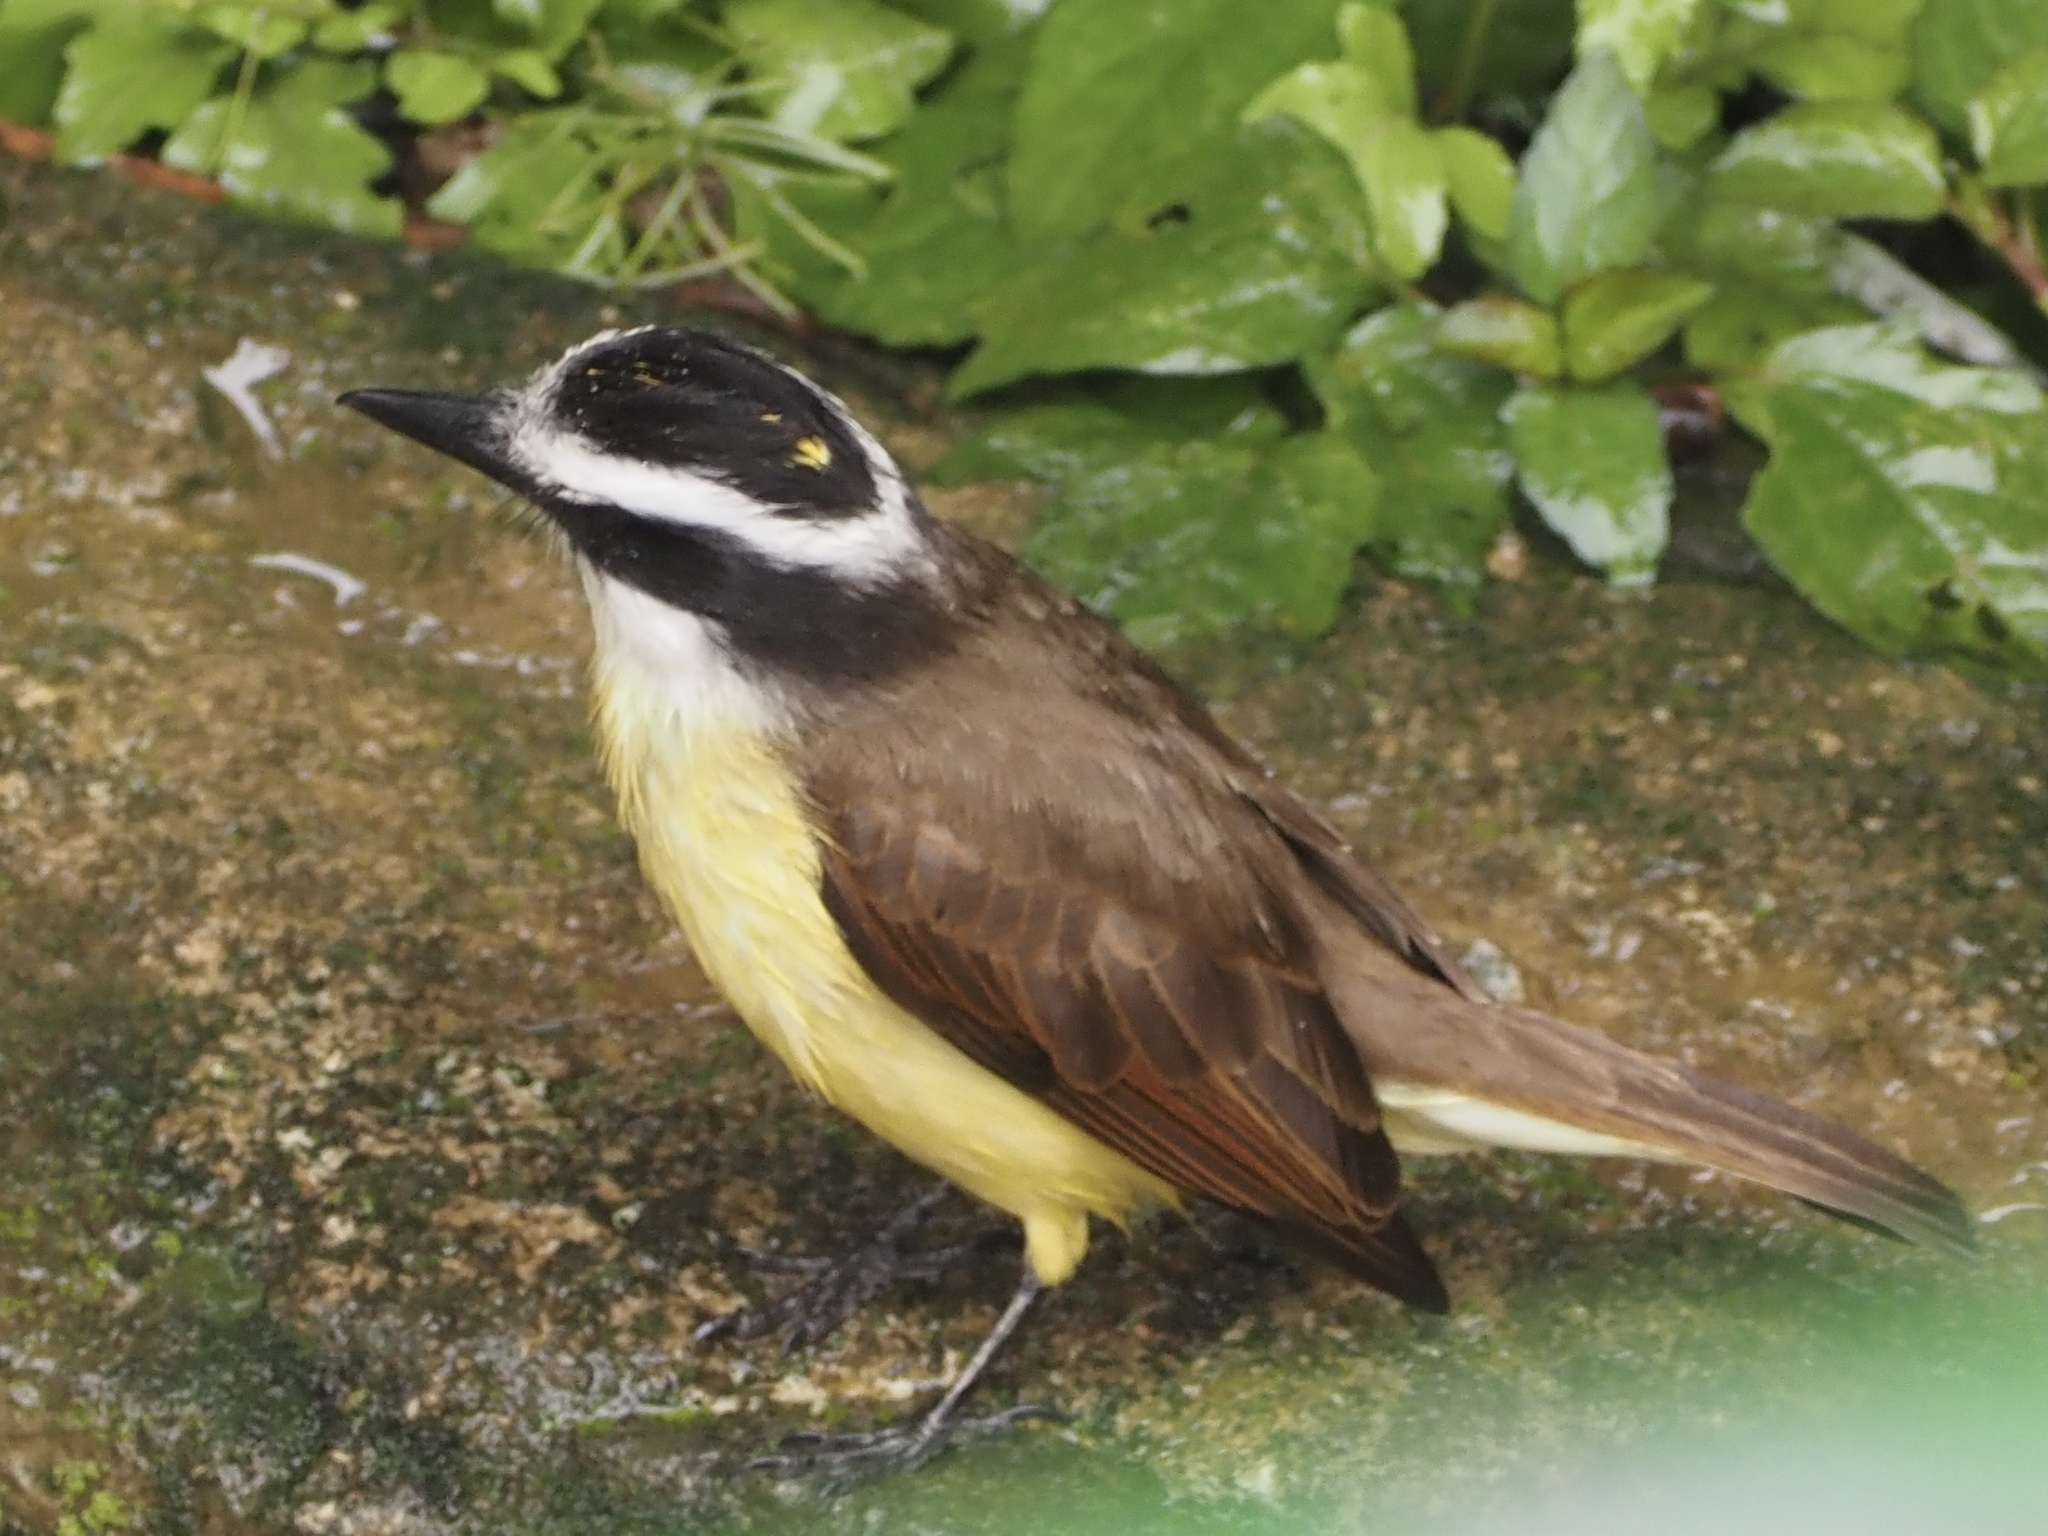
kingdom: Animalia
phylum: Chordata
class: Aves
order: Passeriformes
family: Tyrannidae
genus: Pitangus
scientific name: Pitangus sulphuratus
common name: Great kiskadee
